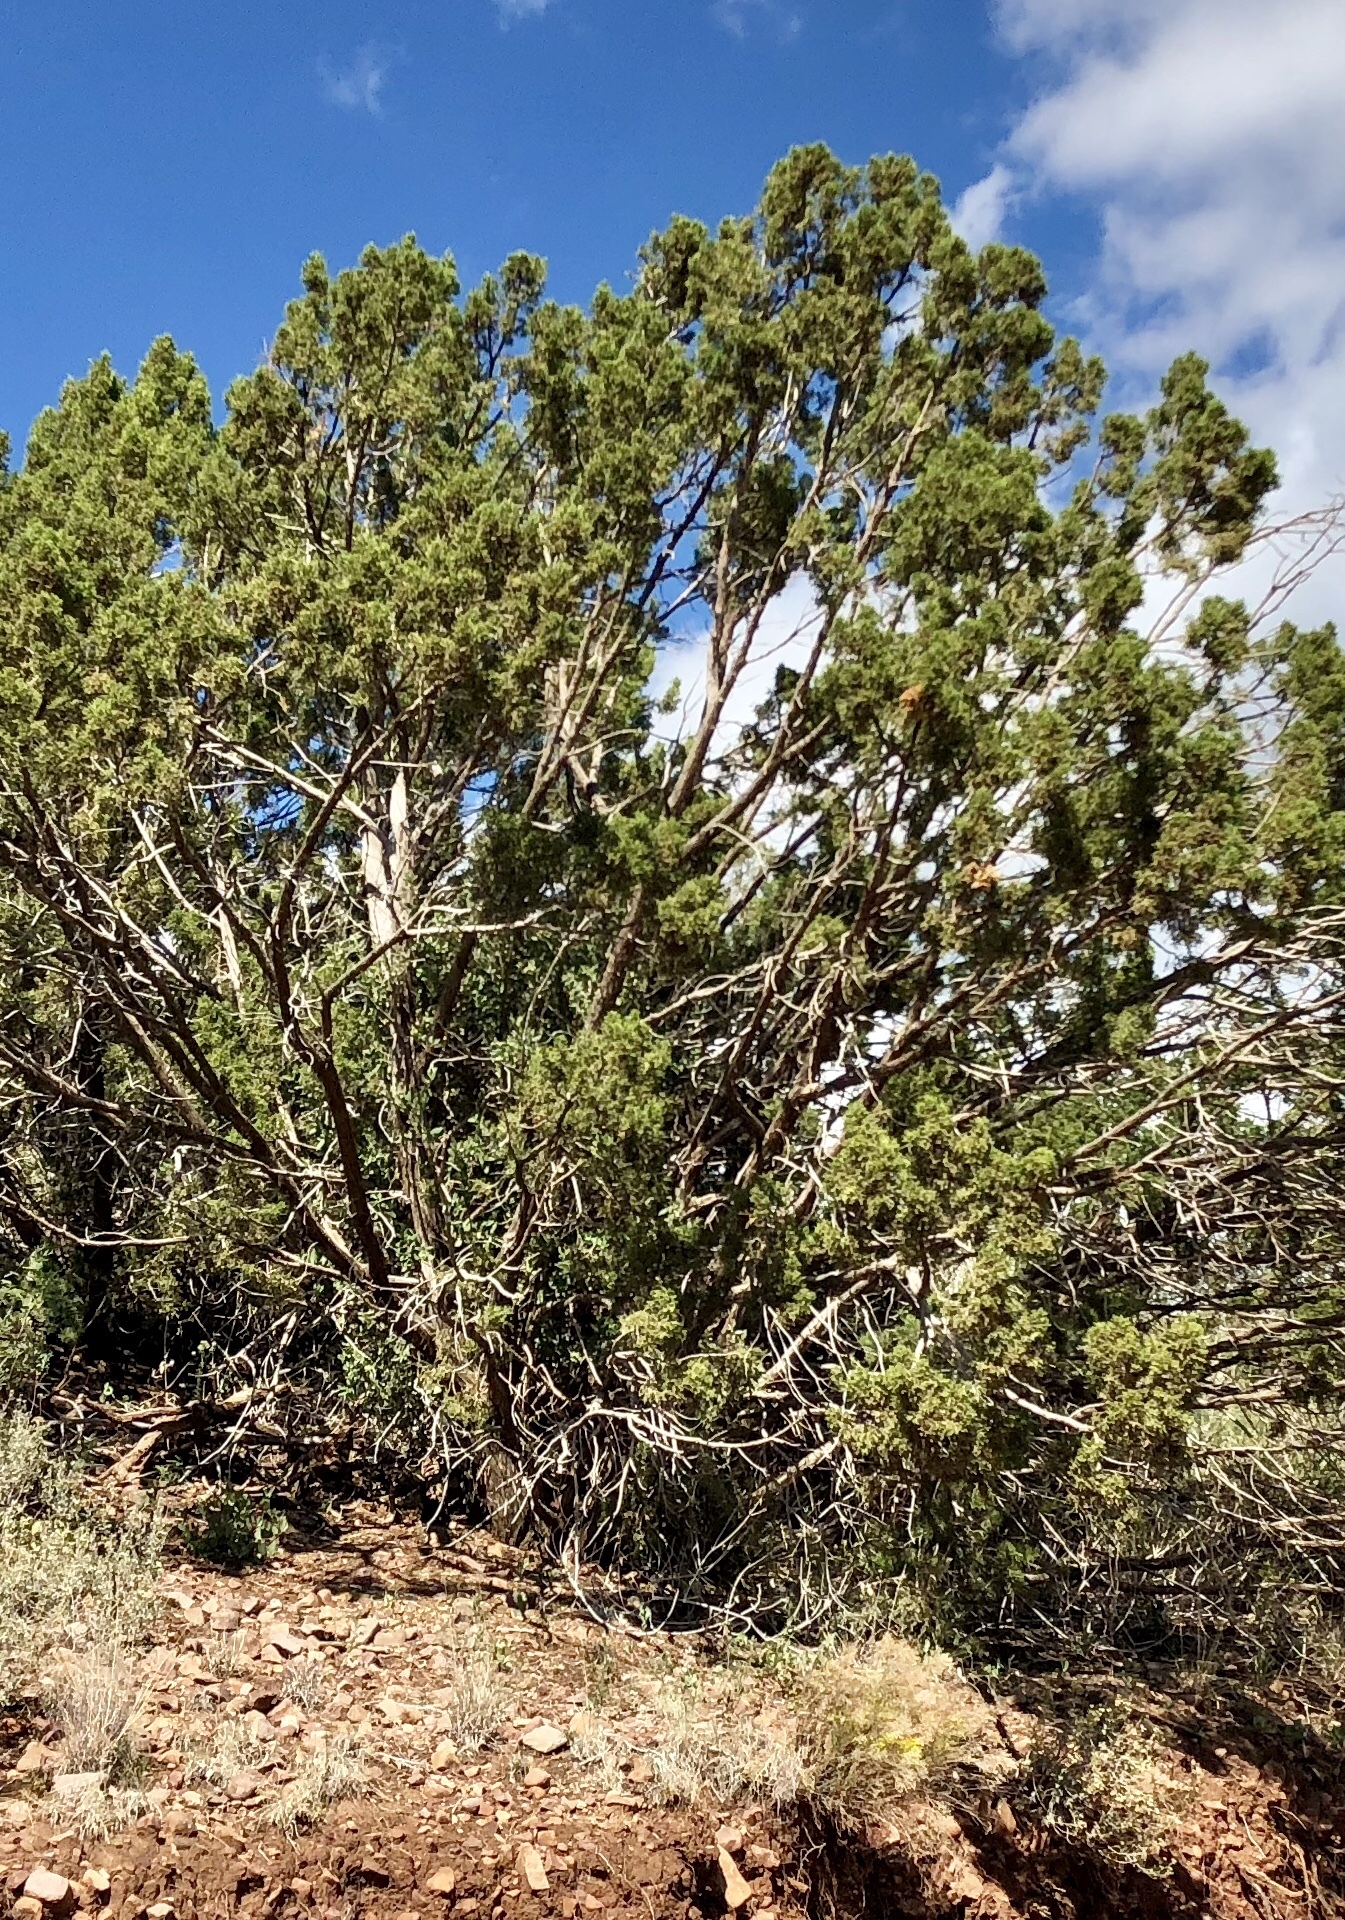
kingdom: Plantae
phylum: Tracheophyta
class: Pinopsida
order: Pinales
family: Cupressaceae
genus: Juniperus
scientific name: Juniperus monosperma
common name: One-seed juniper
